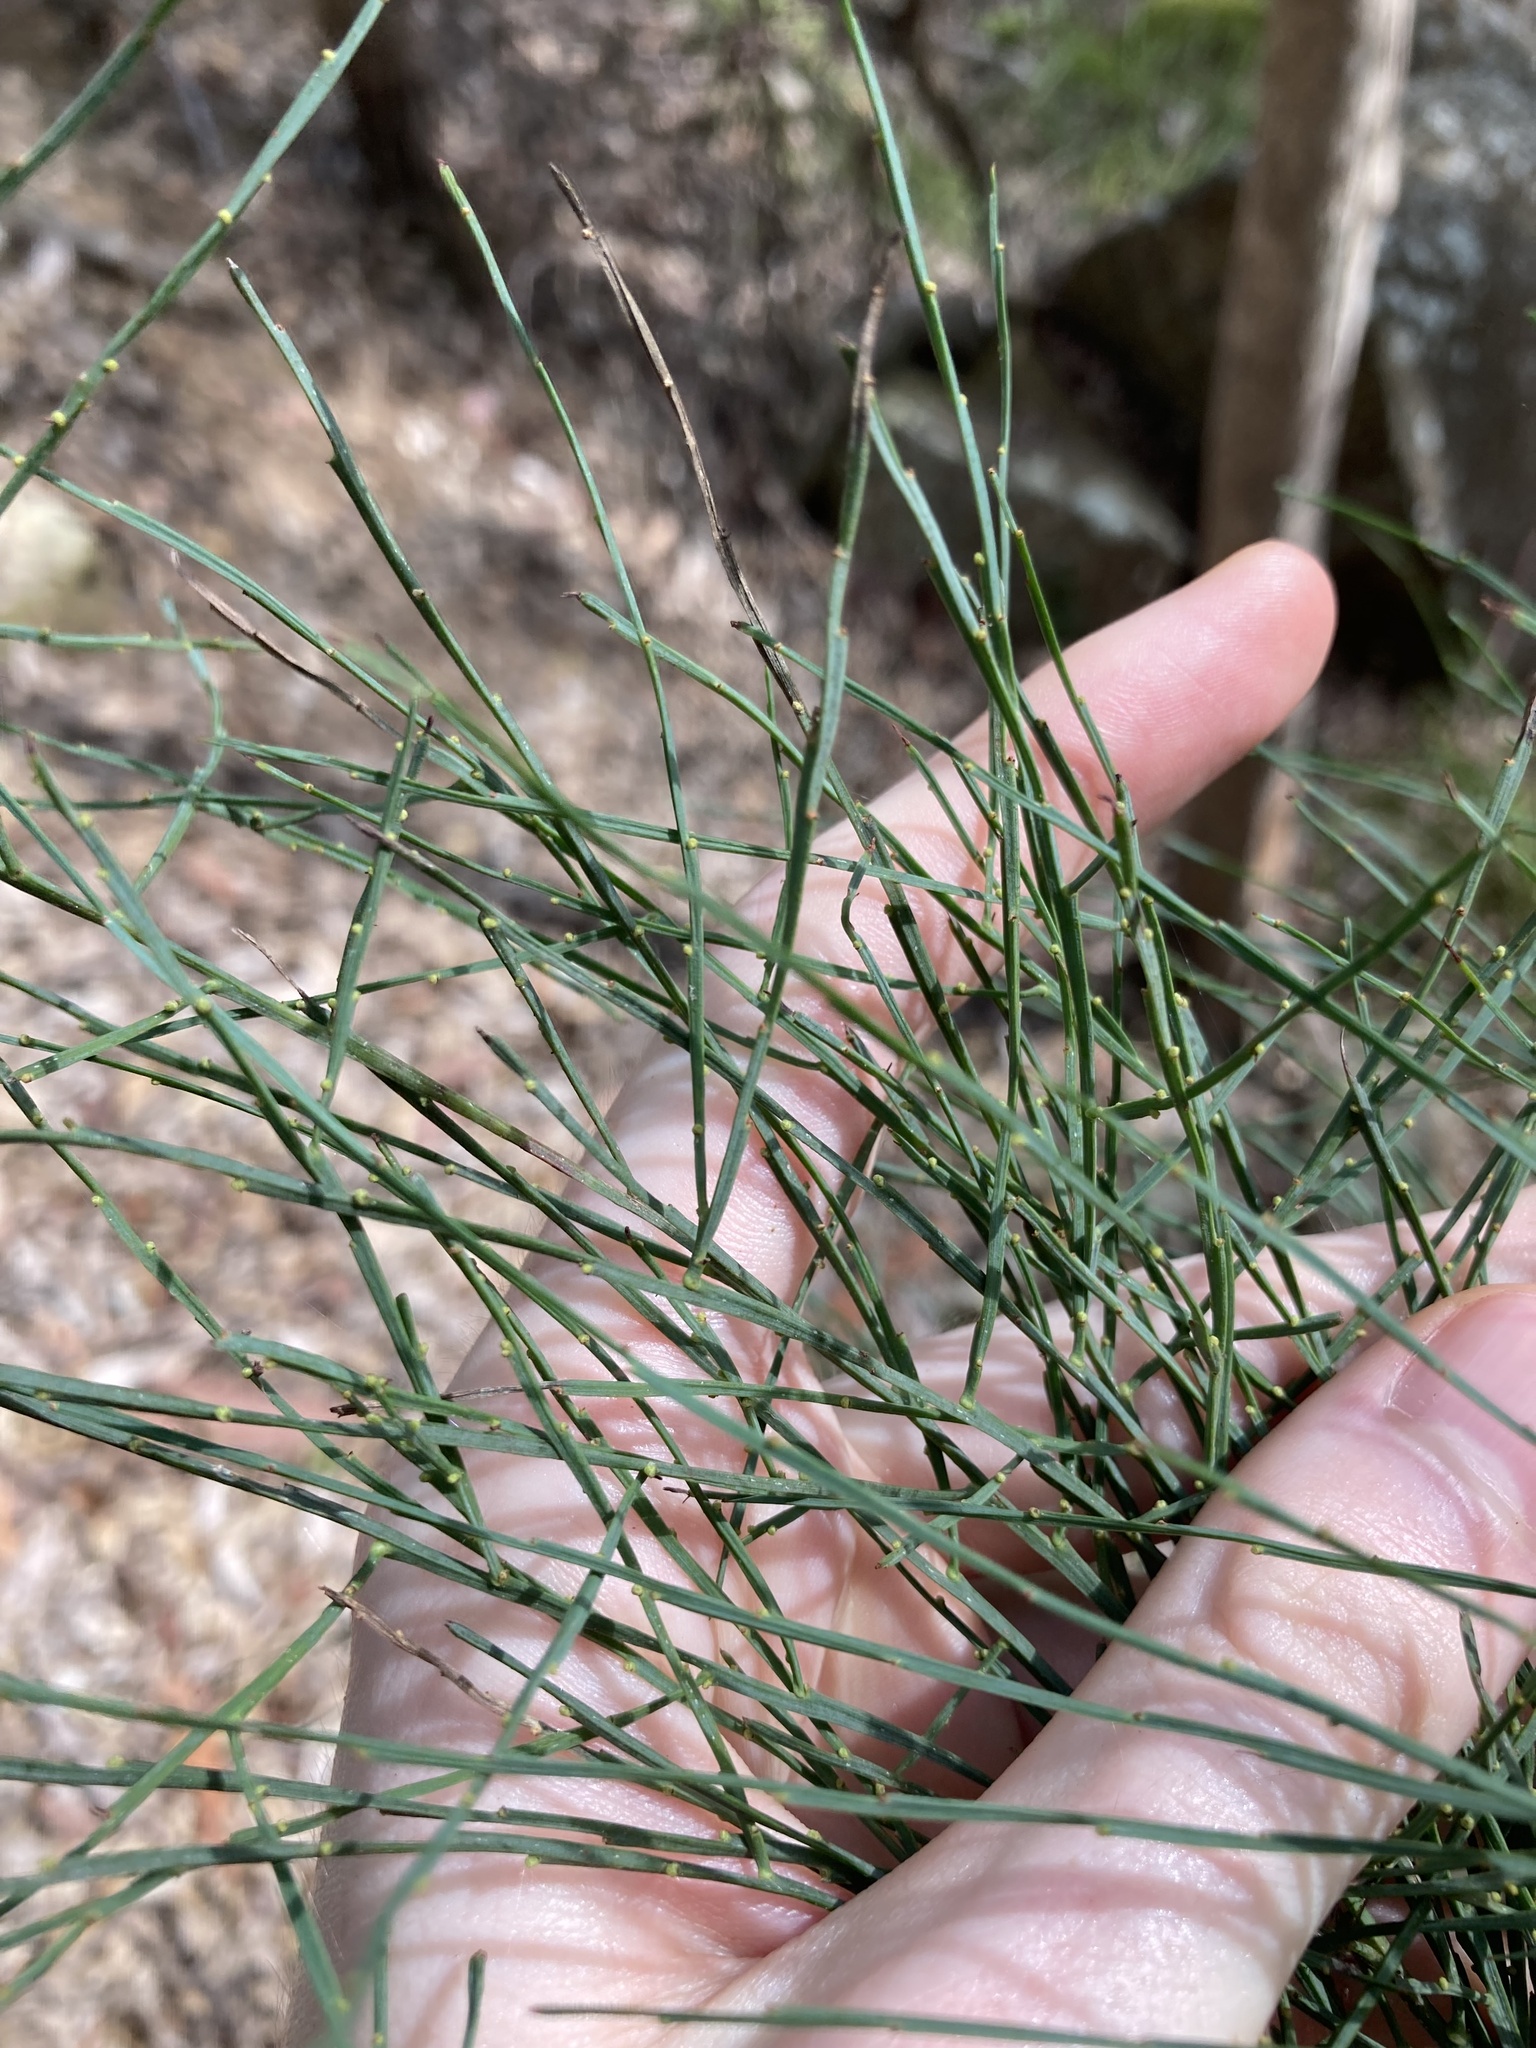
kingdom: Plantae
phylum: Tracheophyta
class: Magnoliopsida
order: Fabales
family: Fabaceae
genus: Jacksonia
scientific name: Jacksonia scoparia
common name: Dogwood
